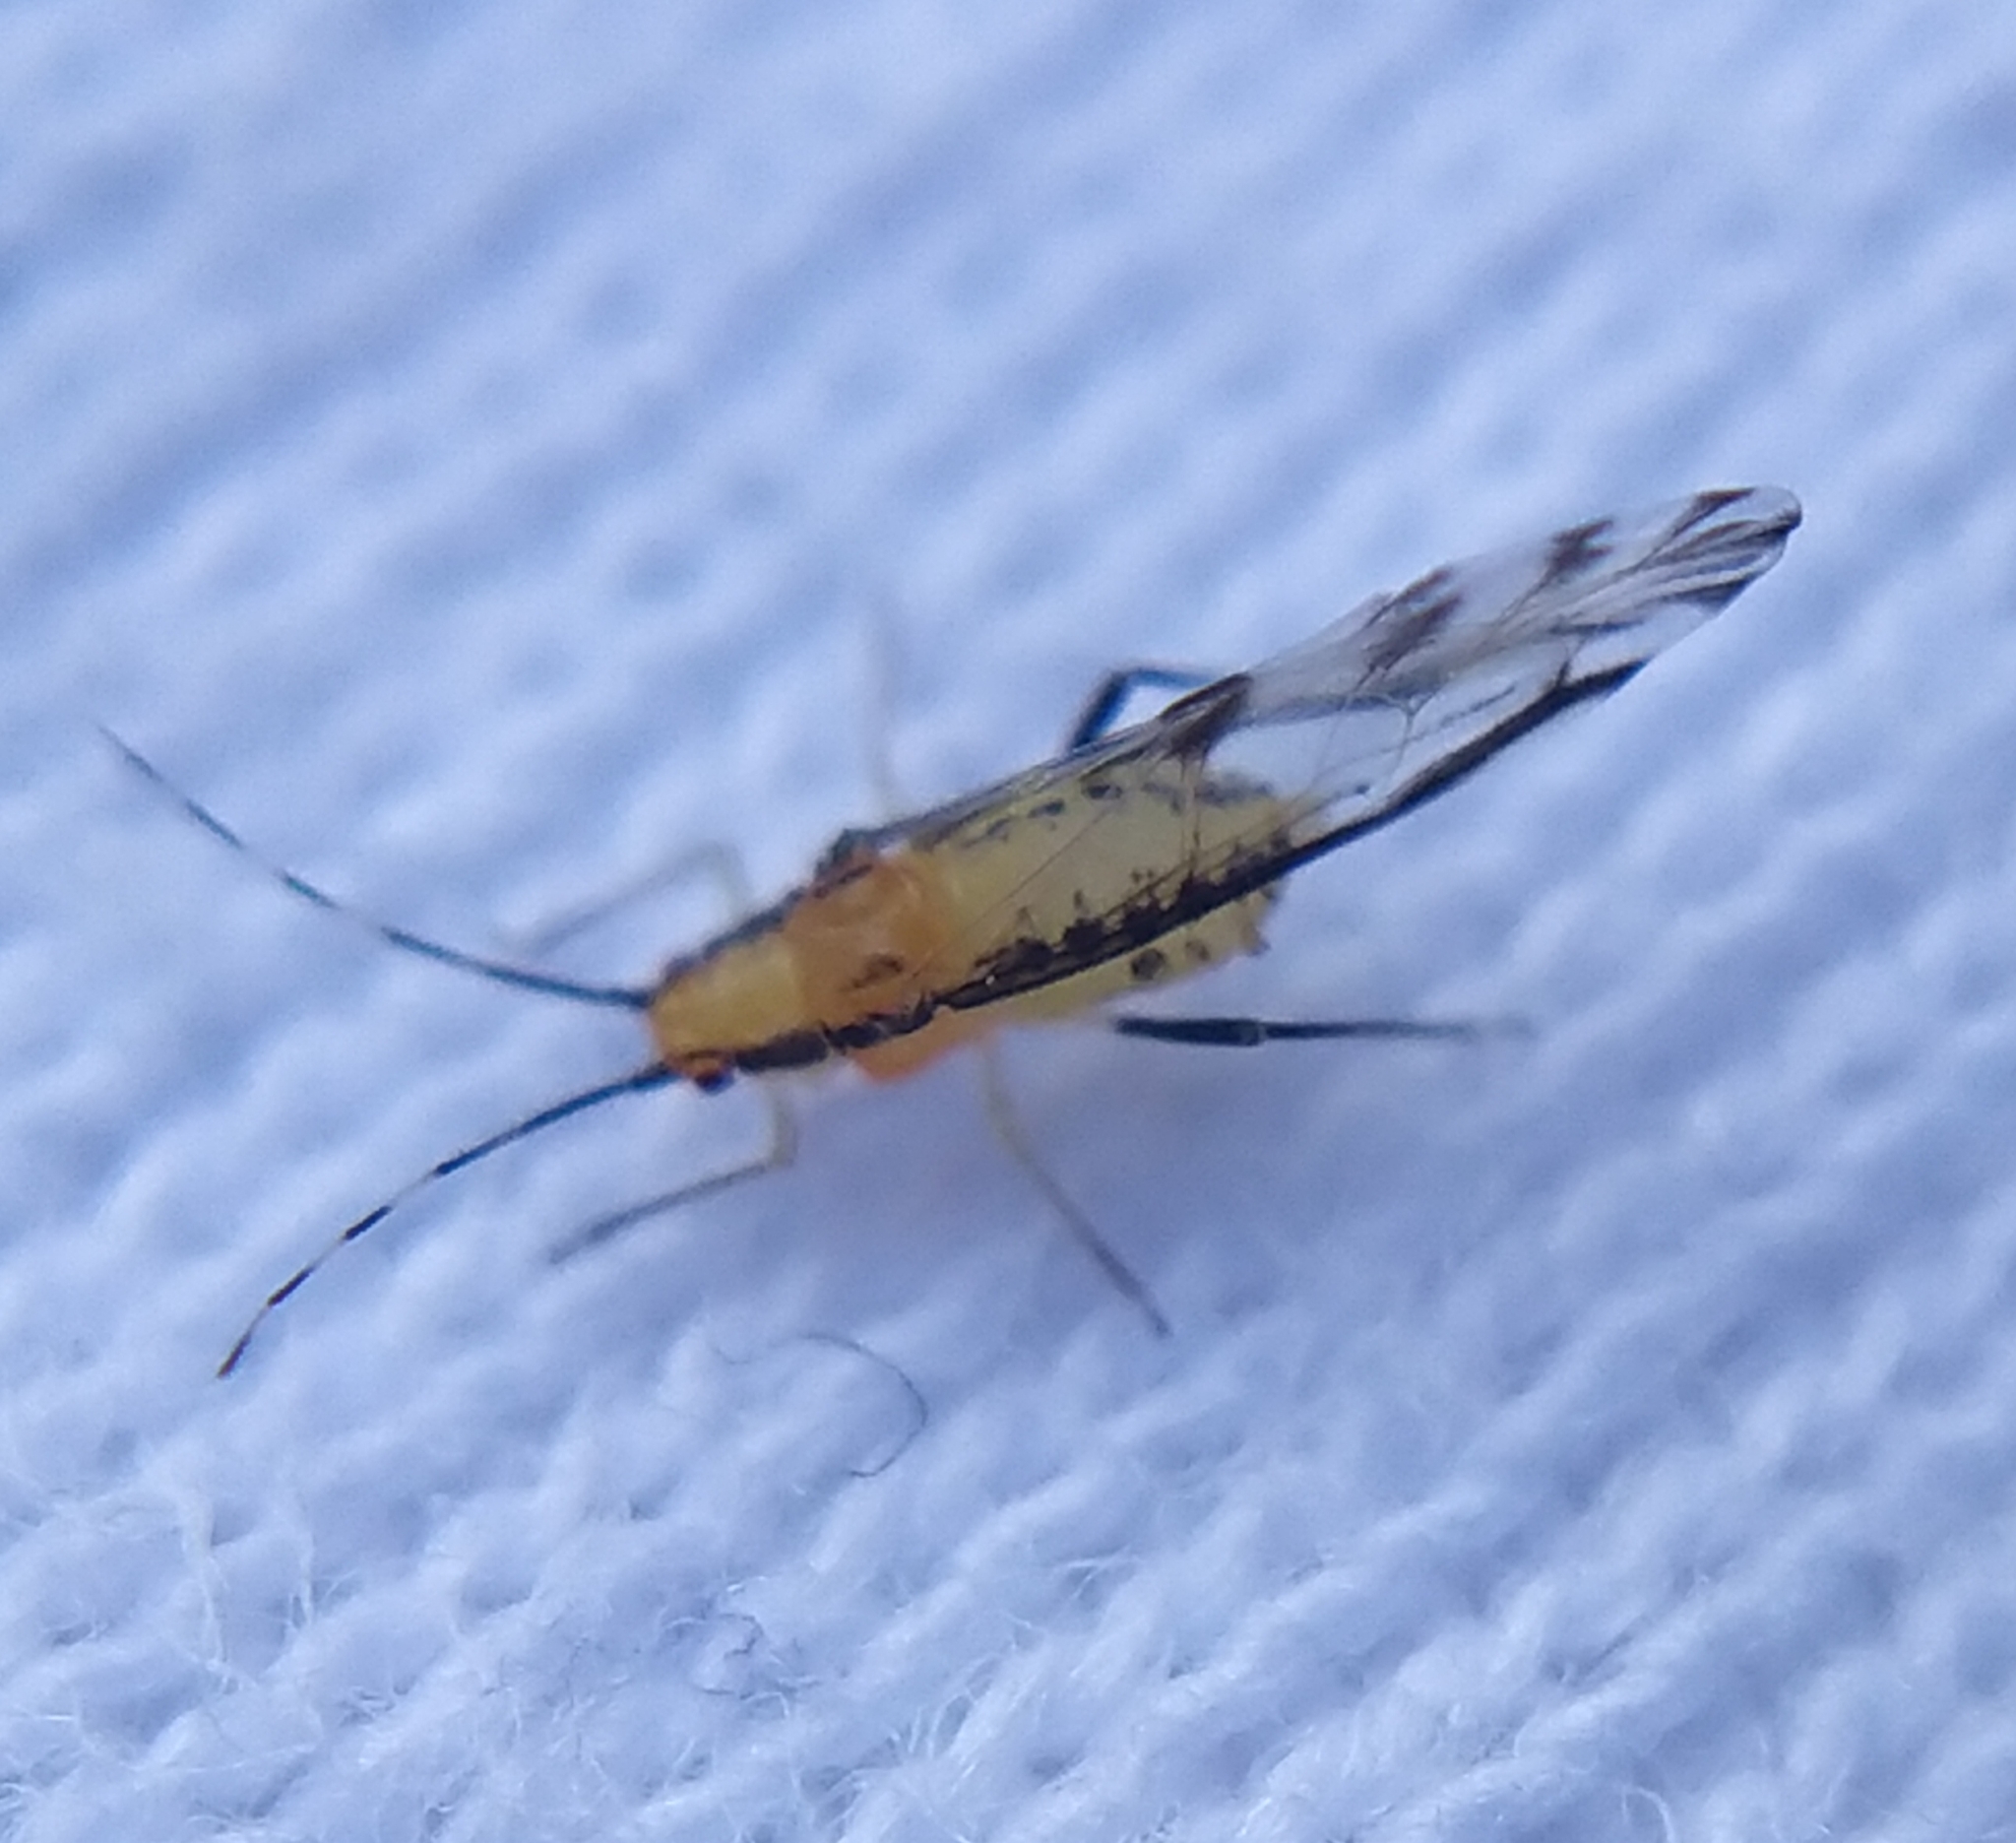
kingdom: Animalia
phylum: Arthropoda
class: Insecta
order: Hemiptera
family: Aphididae
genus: Eucallipterus
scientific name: Eucallipterus tiliae
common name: Aphid
